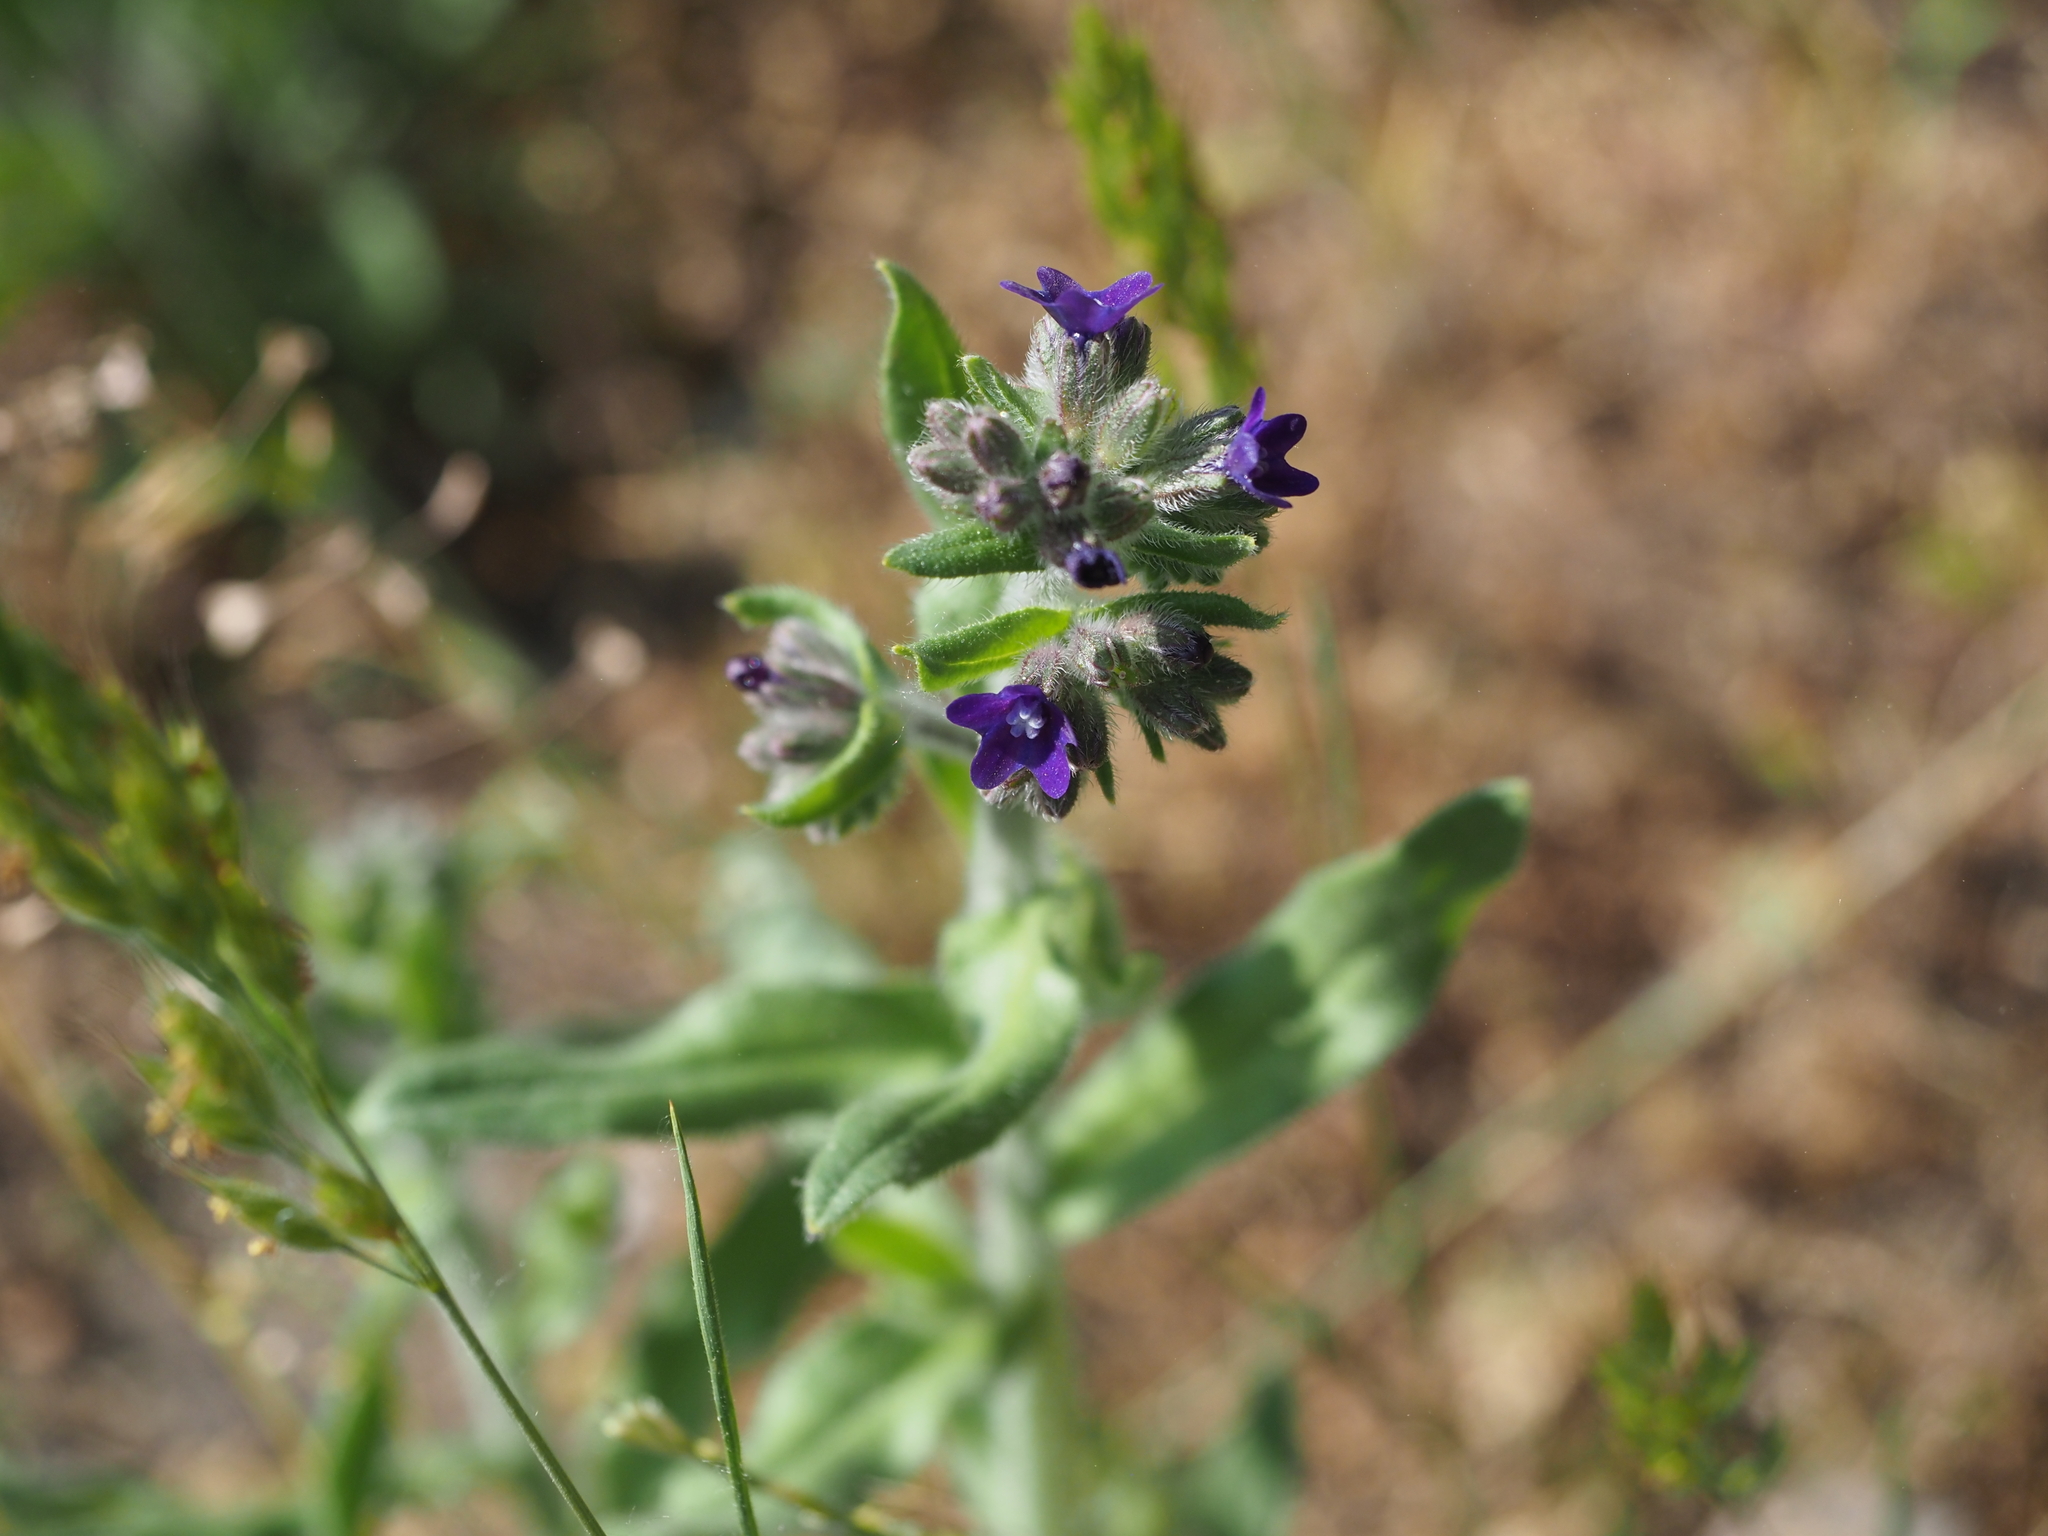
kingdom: Plantae
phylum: Tracheophyta
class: Magnoliopsida
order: Boraginales
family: Boraginaceae
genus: Anchusa
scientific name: Anchusa officinalis
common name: Alkanet
